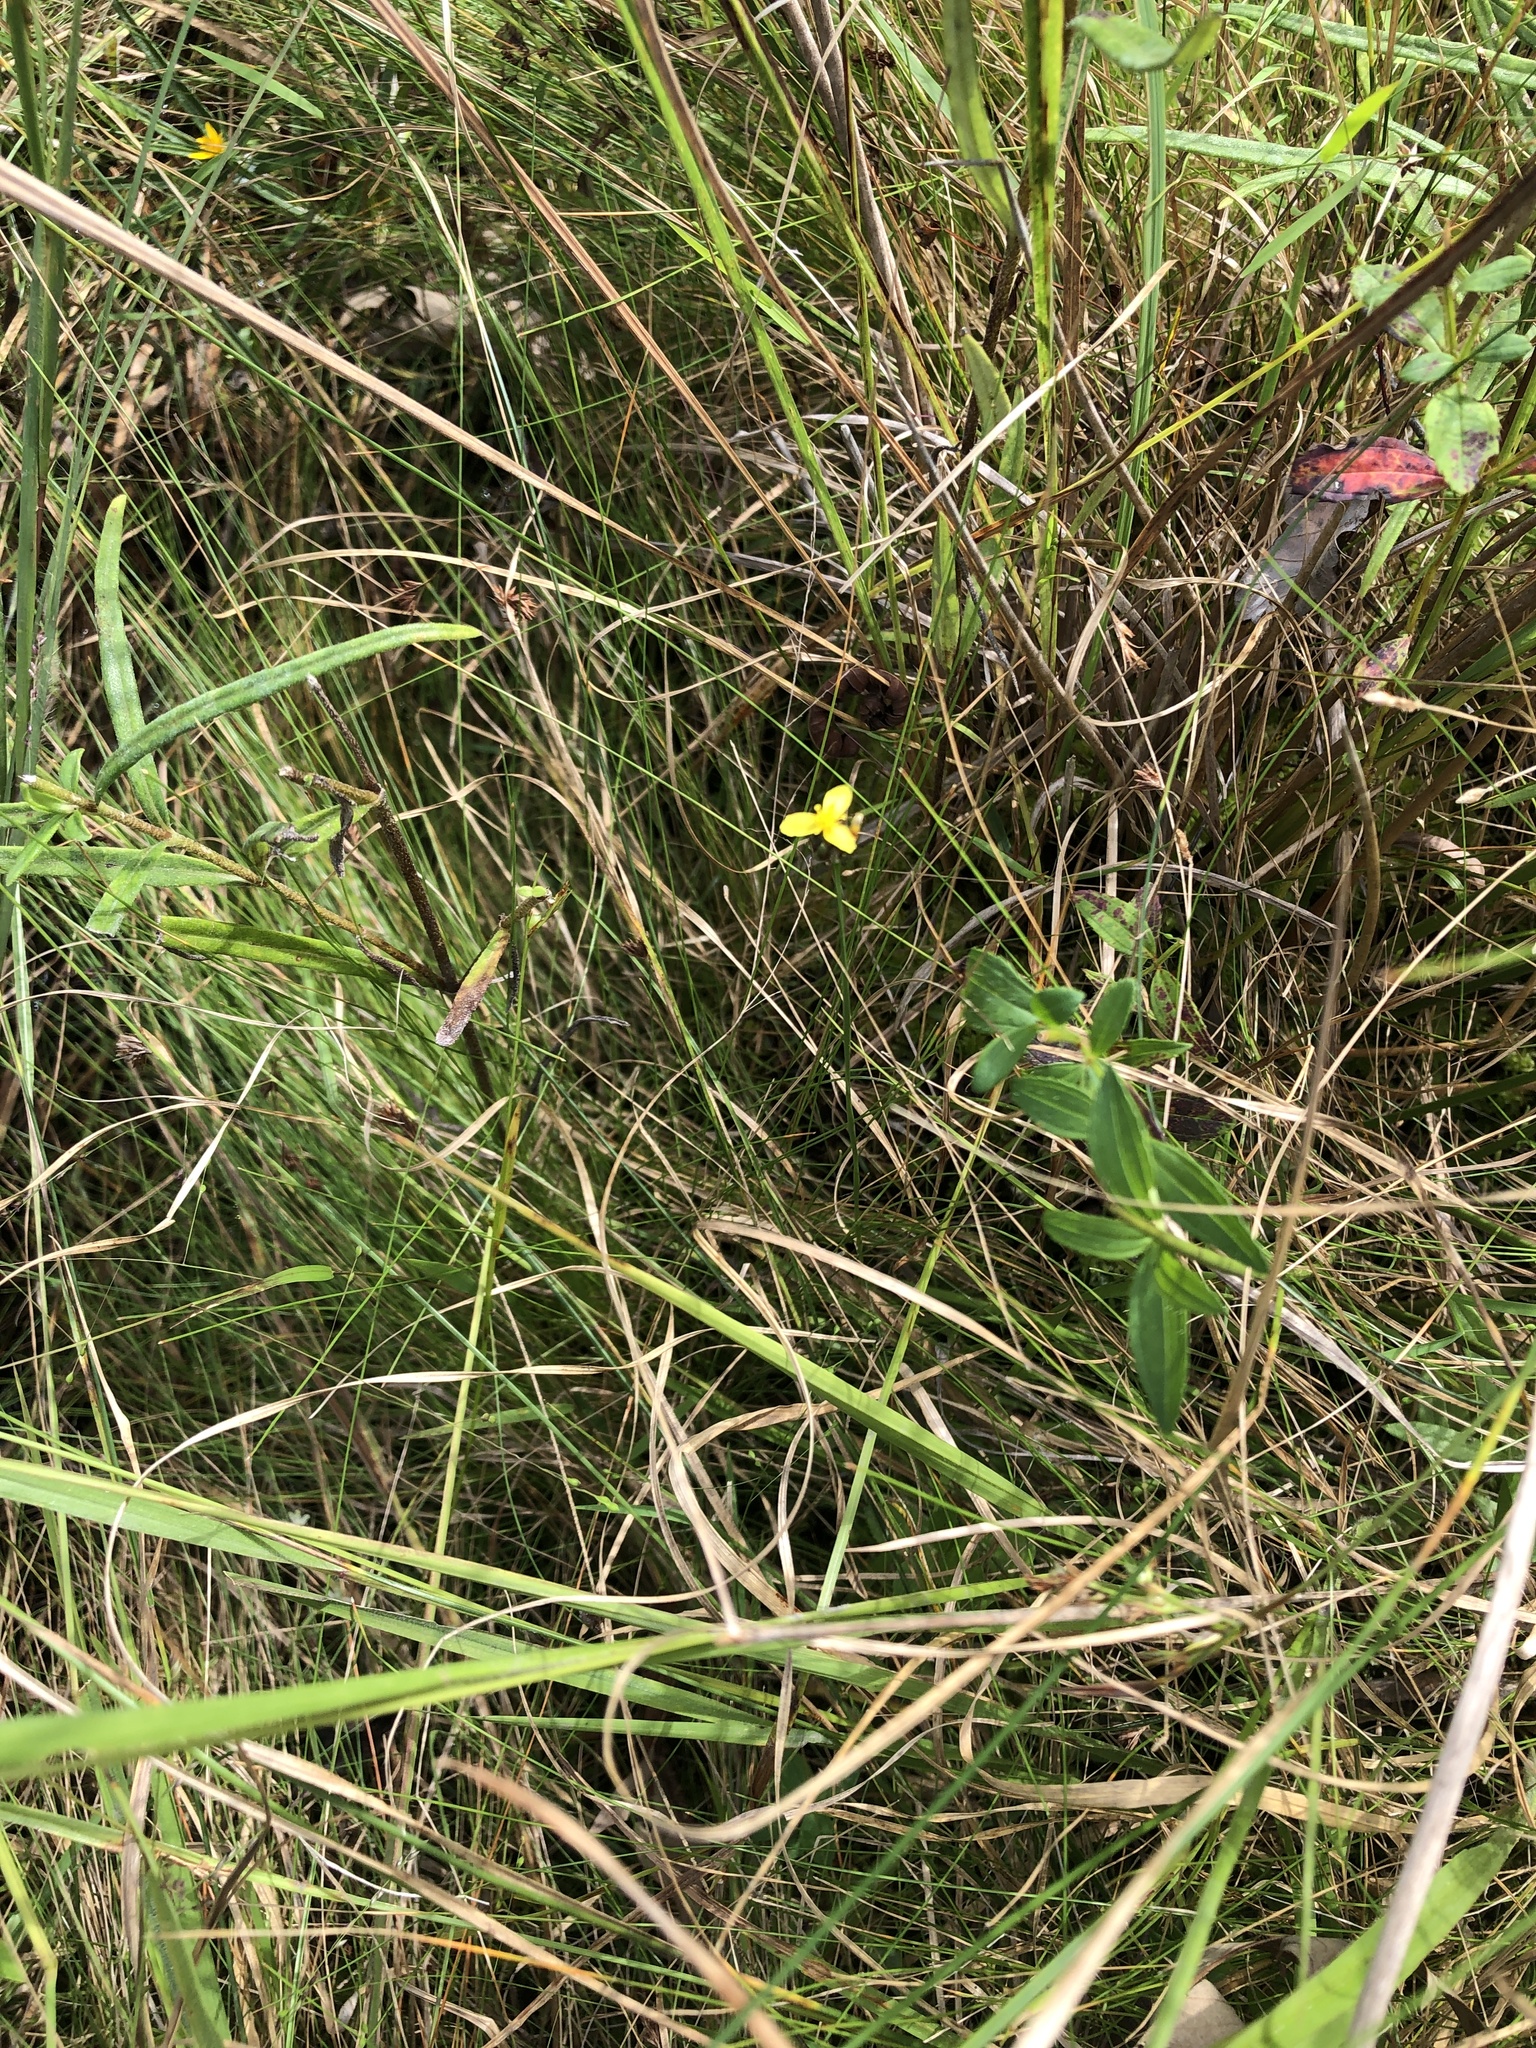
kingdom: Plantae
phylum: Tracheophyta
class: Liliopsida
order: Poales
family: Xyridaceae
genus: Xyris
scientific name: Xyris difformis
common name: Bog yellow-eyed-grass
